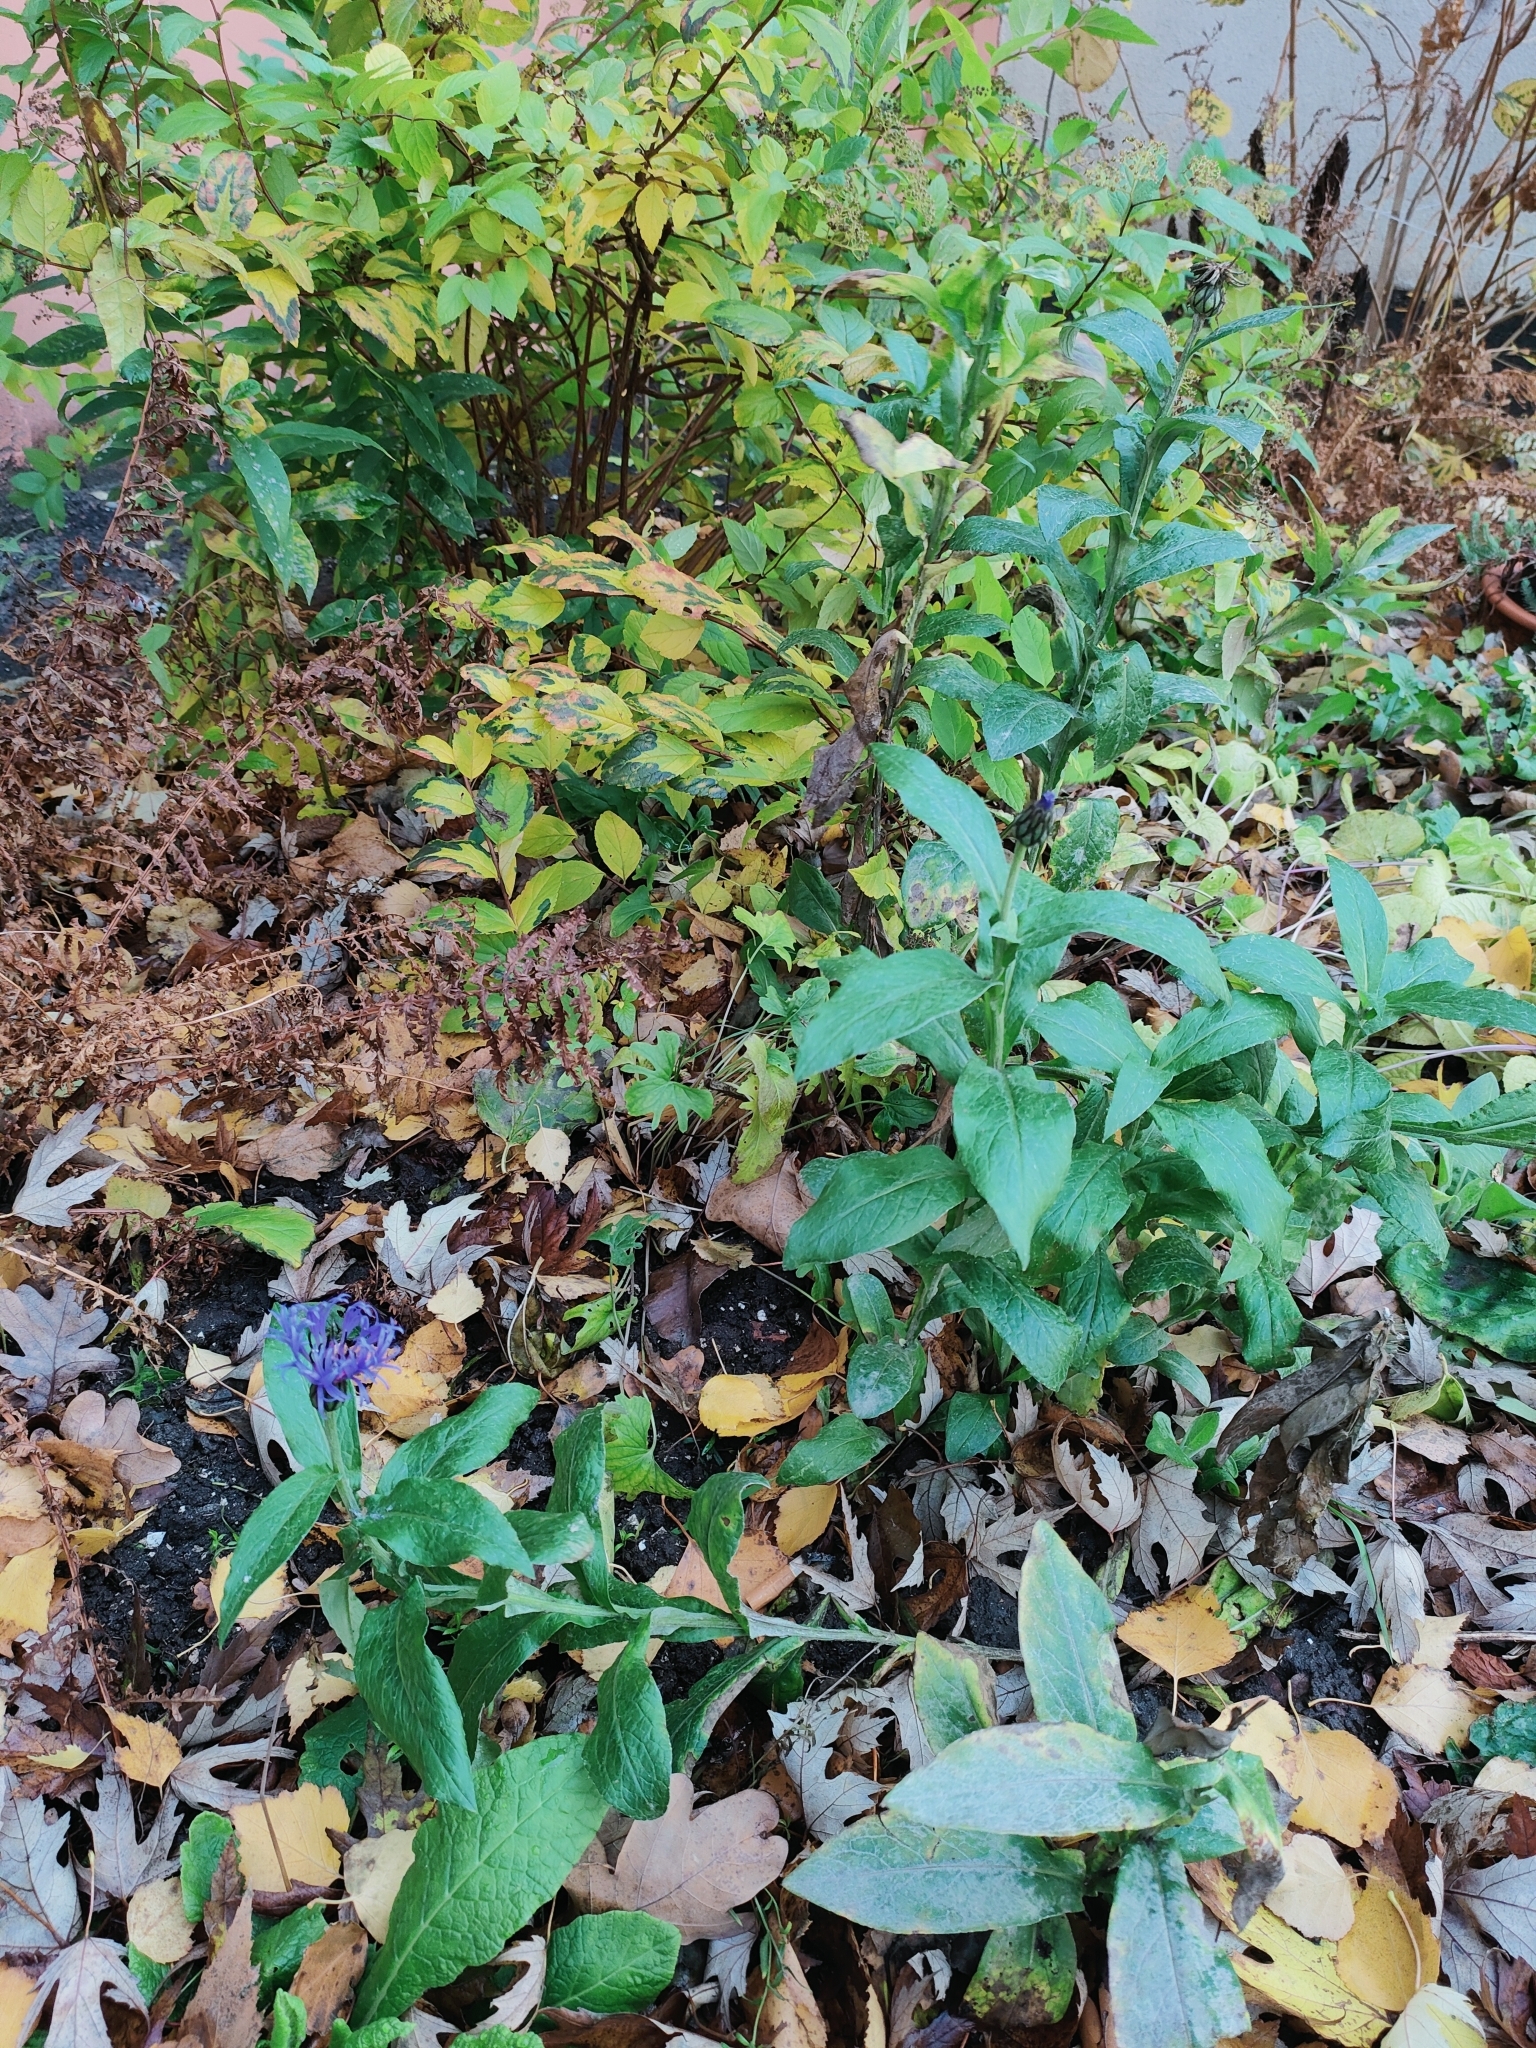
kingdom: Plantae
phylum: Tracheophyta
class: Magnoliopsida
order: Asterales
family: Asteraceae
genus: Centaurea
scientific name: Centaurea montana
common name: Perennial cornflower
